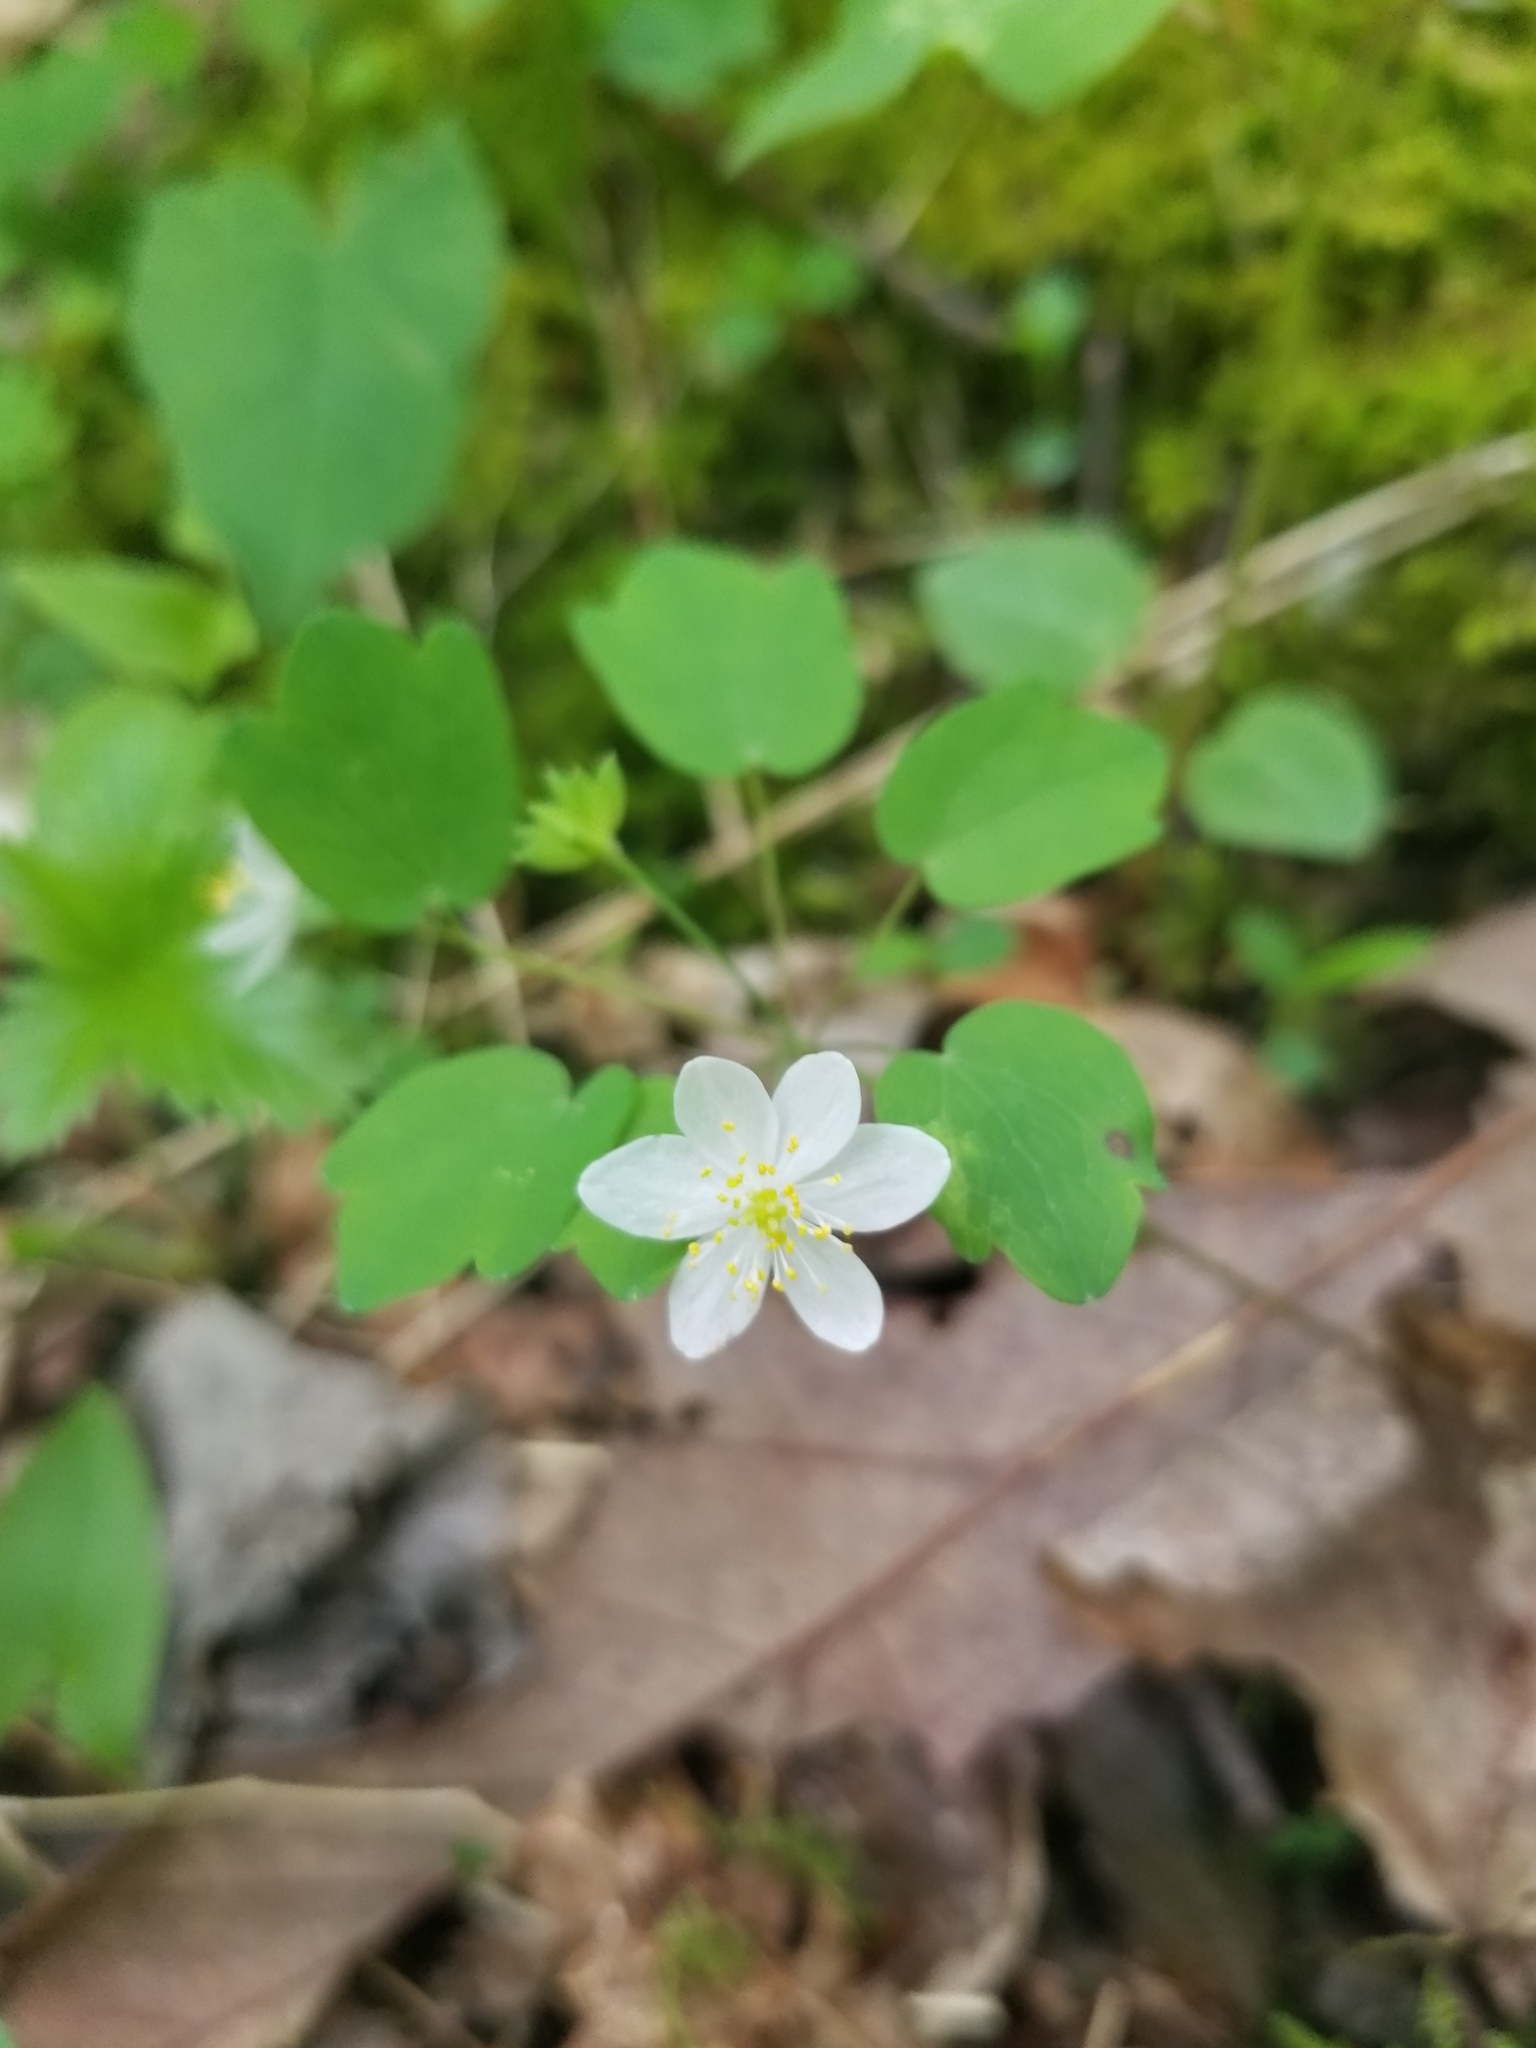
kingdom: Plantae
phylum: Tracheophyta
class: Magnoliopsida
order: Ranunculales
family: Ranunculaceae
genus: Thalictrum
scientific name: Thalictrum thalictroides
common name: Rue-anemone
